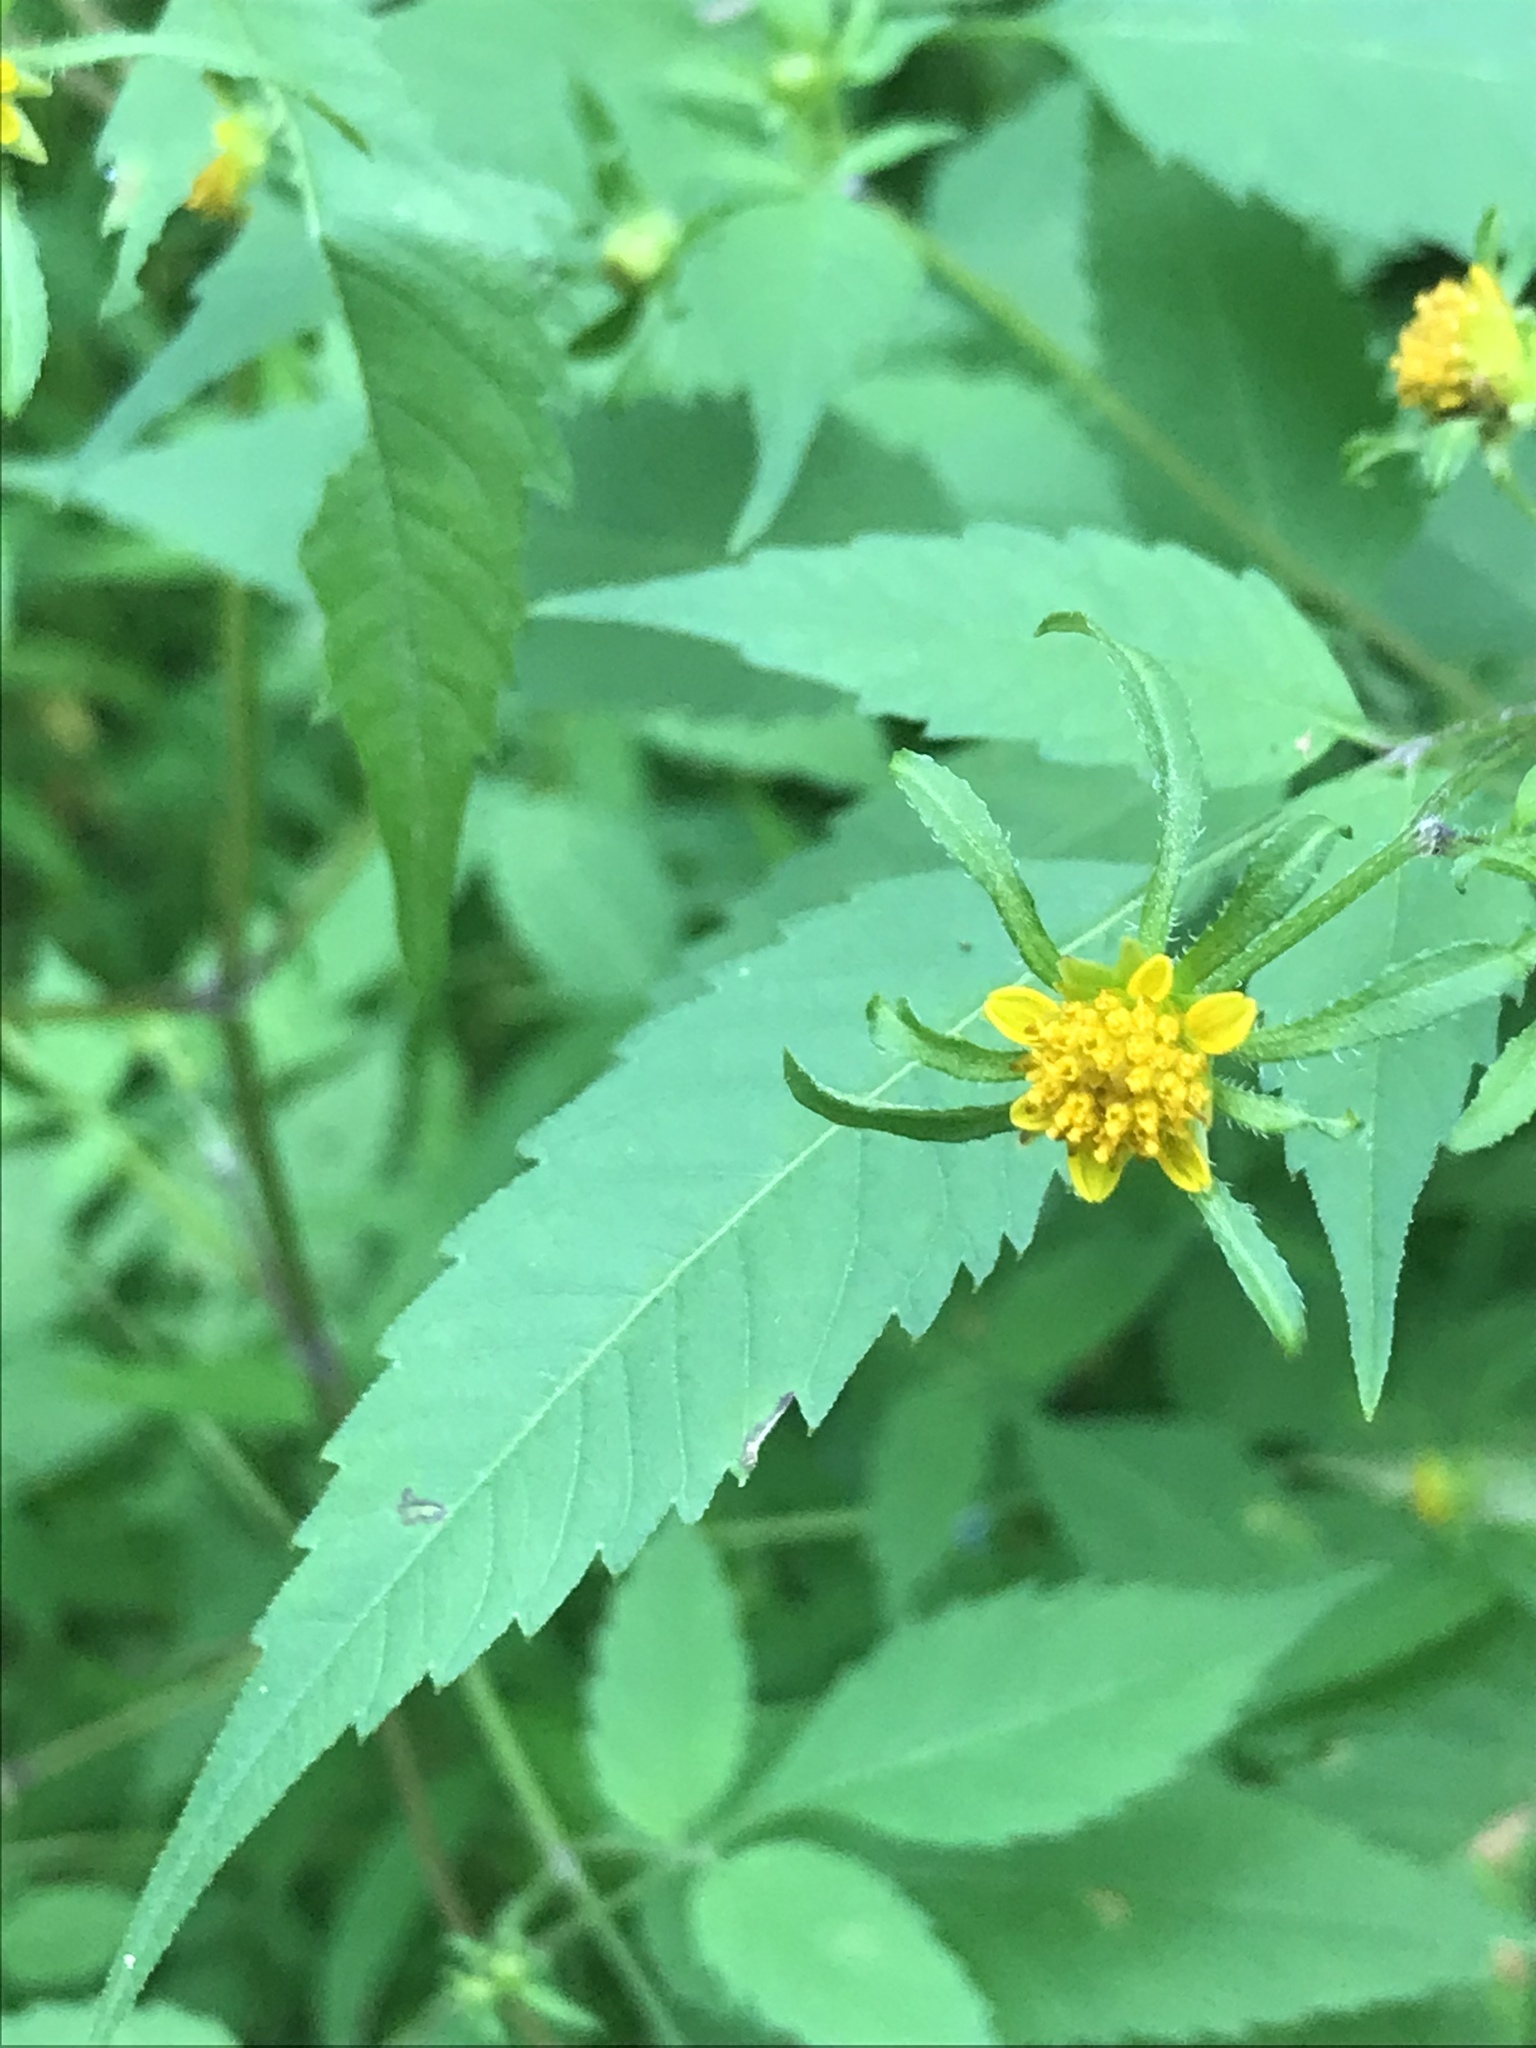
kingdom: Plantae
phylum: Tracheophyta
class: Magnoliopsida
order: Asterales
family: Asteraceae
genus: Bidens
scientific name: Bidens frondosa
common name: Beggarticks
